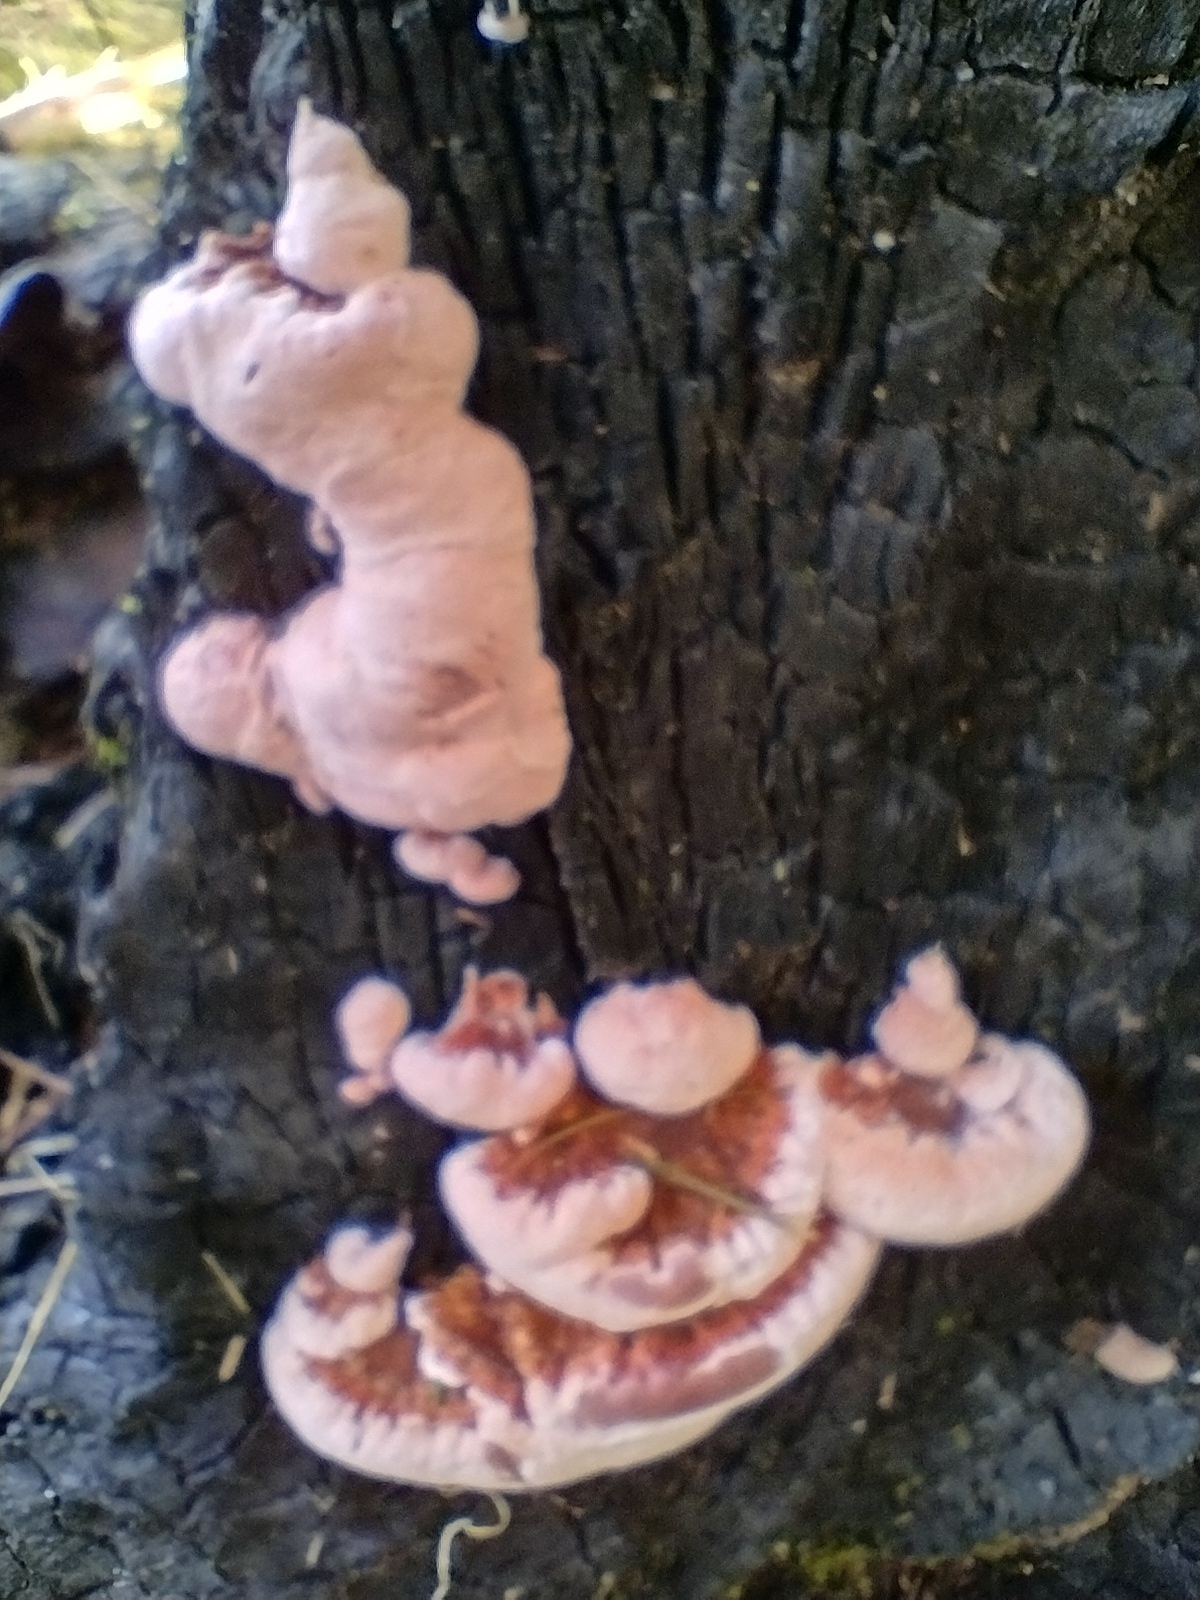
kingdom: Fungi
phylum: Basidiomycota
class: Agaricomycetes
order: Polyporales
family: Fomitopsidaceae
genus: Rhodofomitopsis
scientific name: Rhodofomitopsis lilacinogilva
